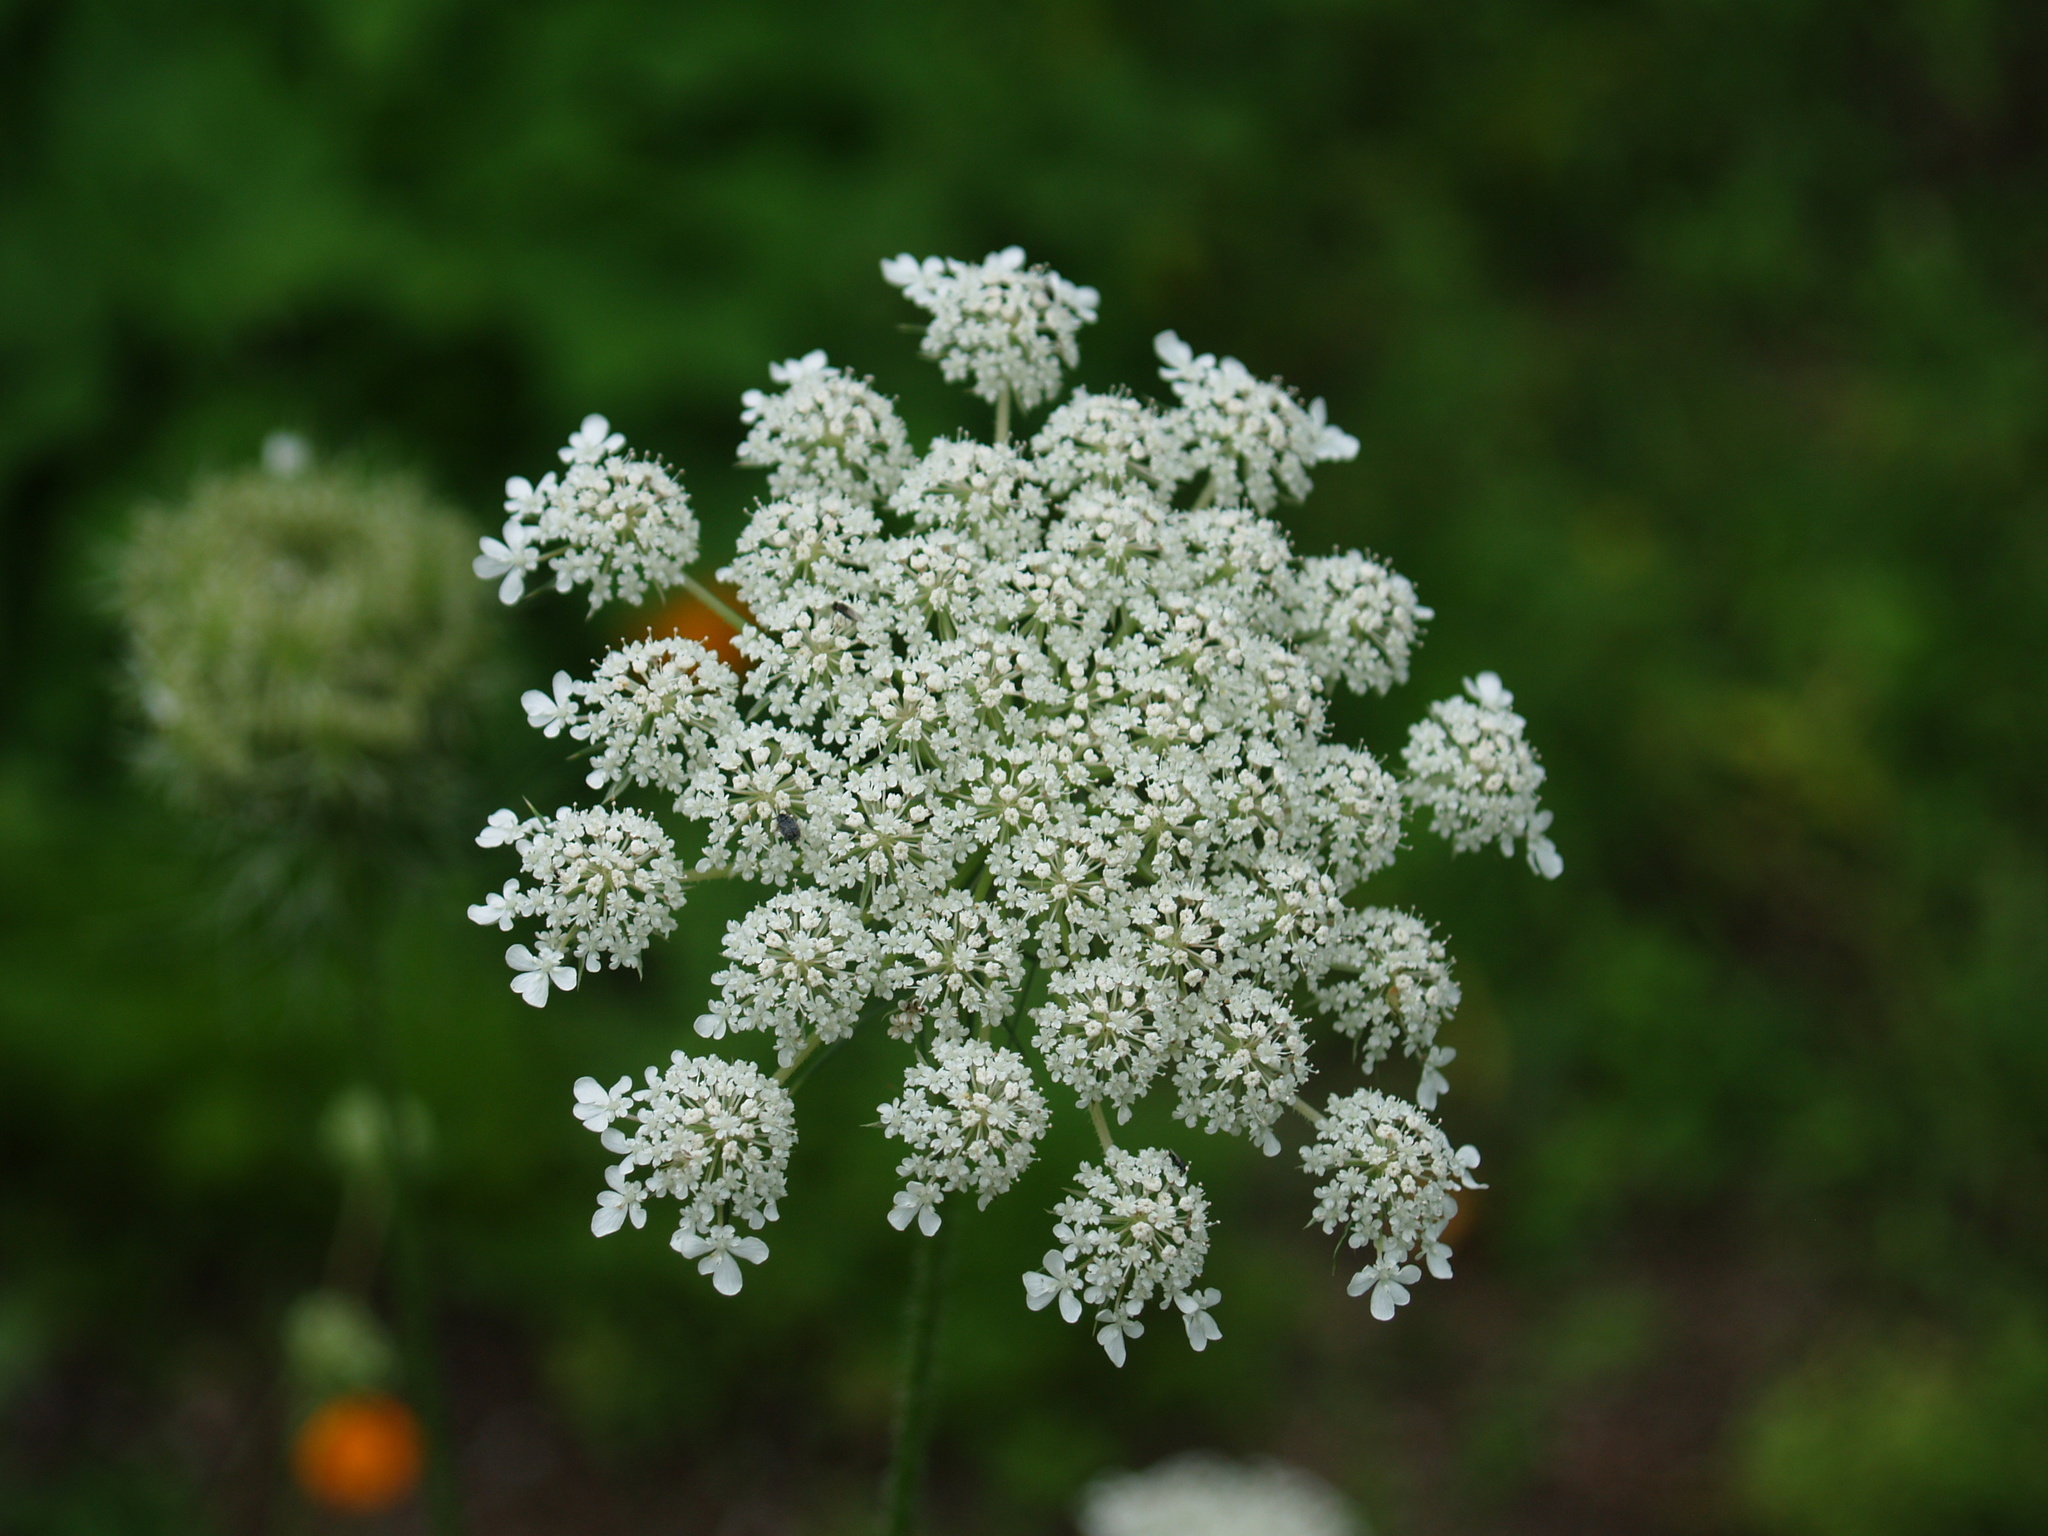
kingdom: Plantae
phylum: Tracheophyta
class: Magnoliopsida
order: Apiales
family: Apiaceae
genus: Daucus
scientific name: Daucus carota
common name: Wild carrot
